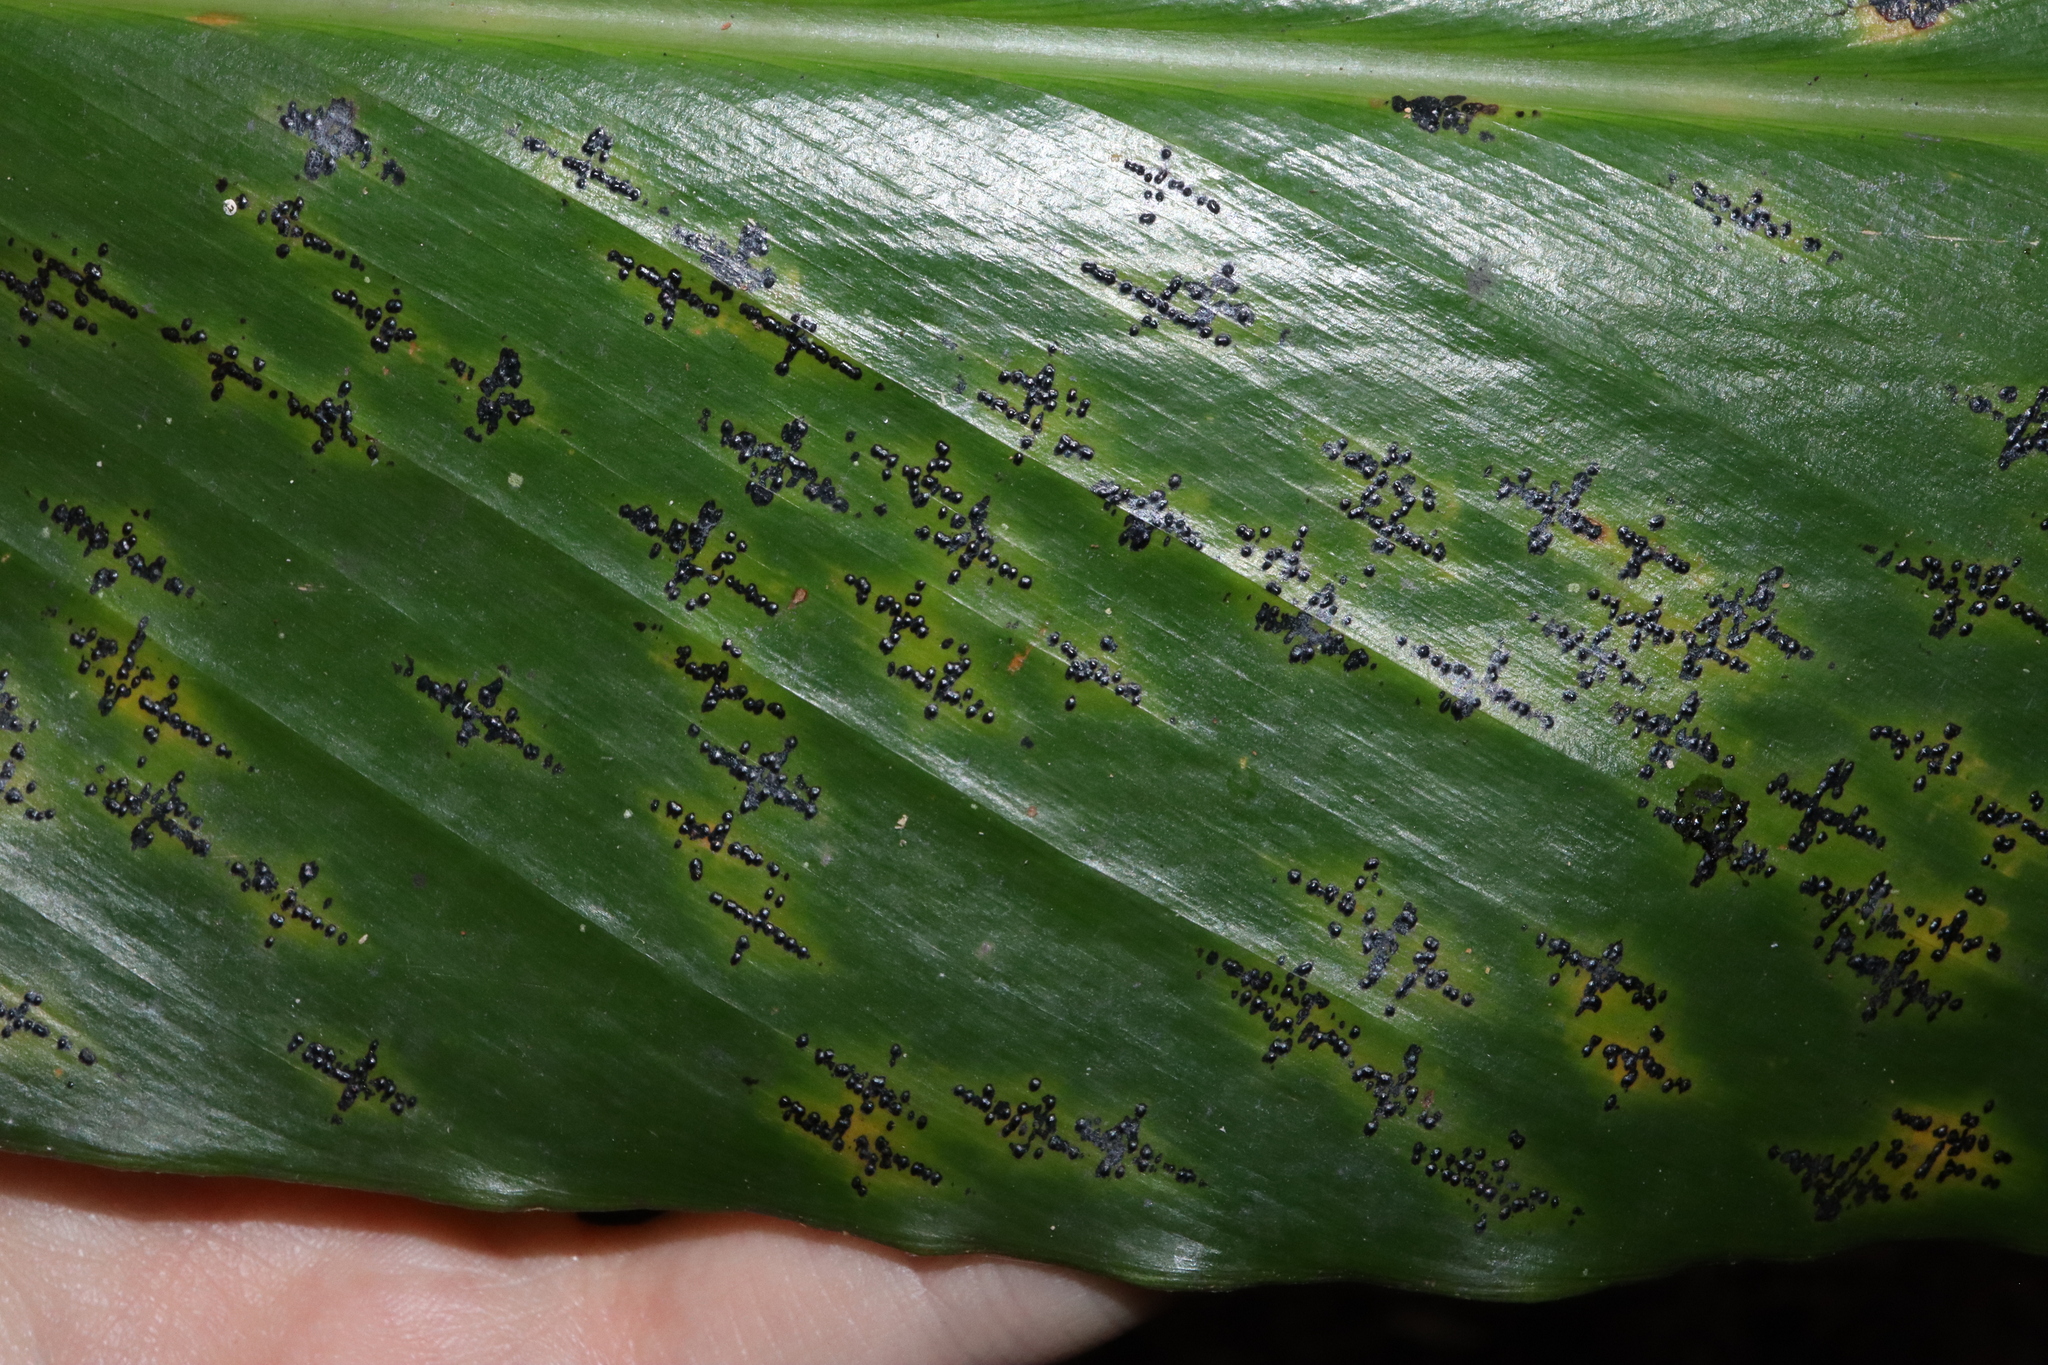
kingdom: Fungi
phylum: Ascomycota
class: Sordariomycetes
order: Phyllachorales
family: Phyllachoraceae
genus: Phyllachora
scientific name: Phyllachora alpiniae
